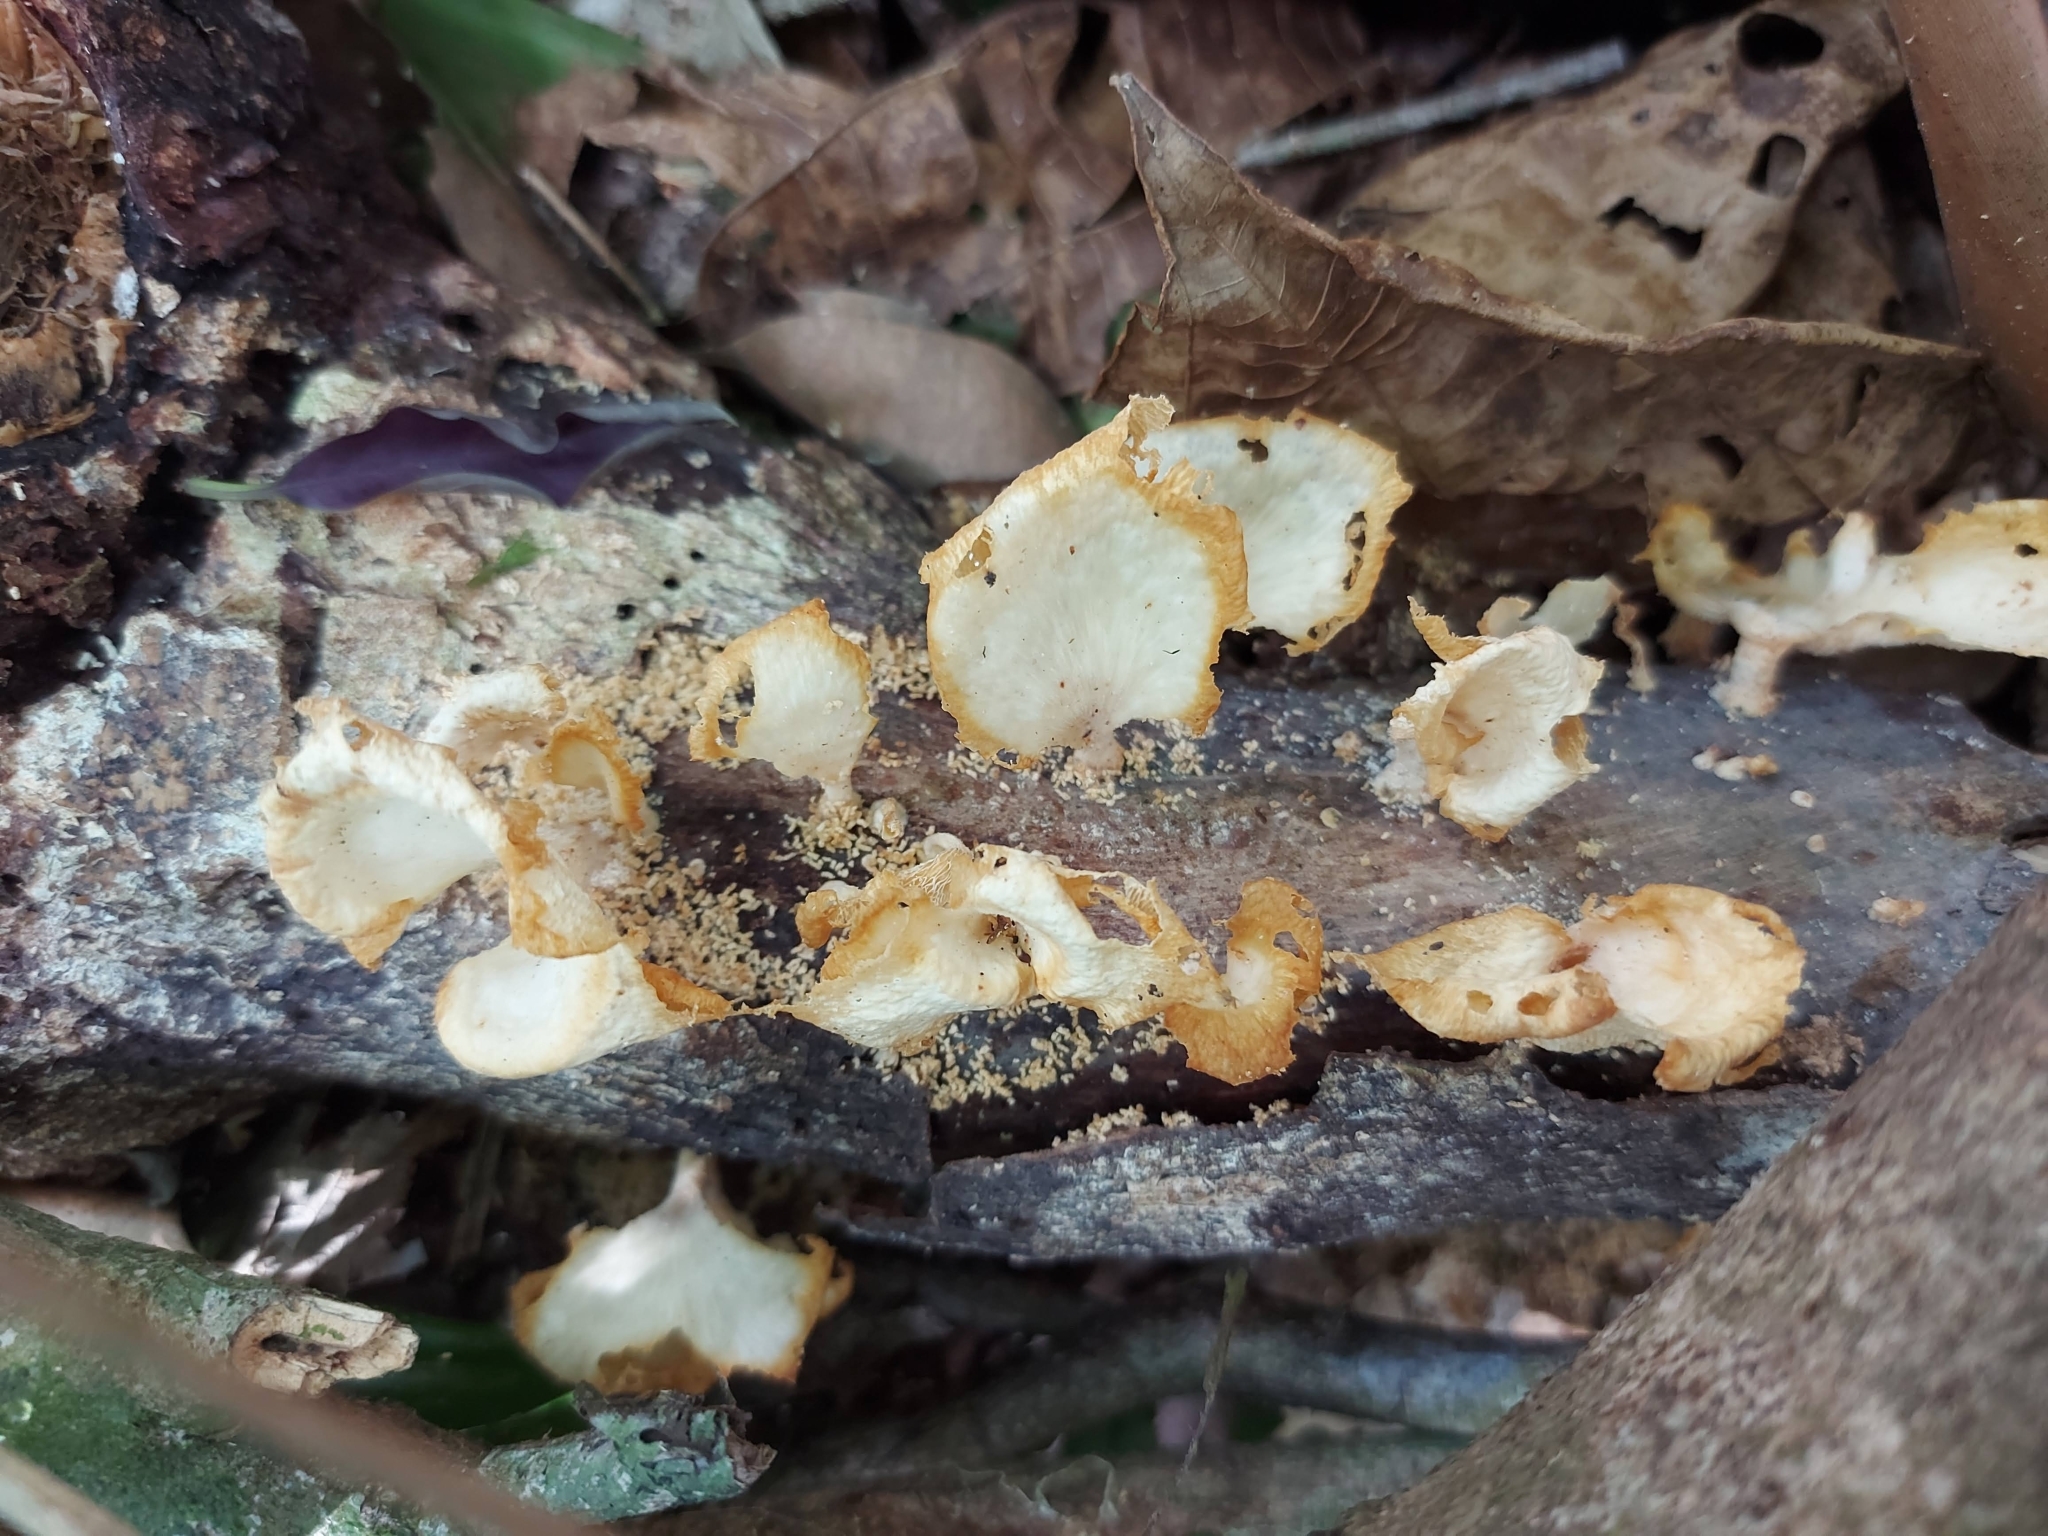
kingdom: Fungi
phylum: Basidiomycota
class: Agaricomycetes
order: Polyporales
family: Polyporaceae
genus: Favolus
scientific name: Favolus tenuiculus
